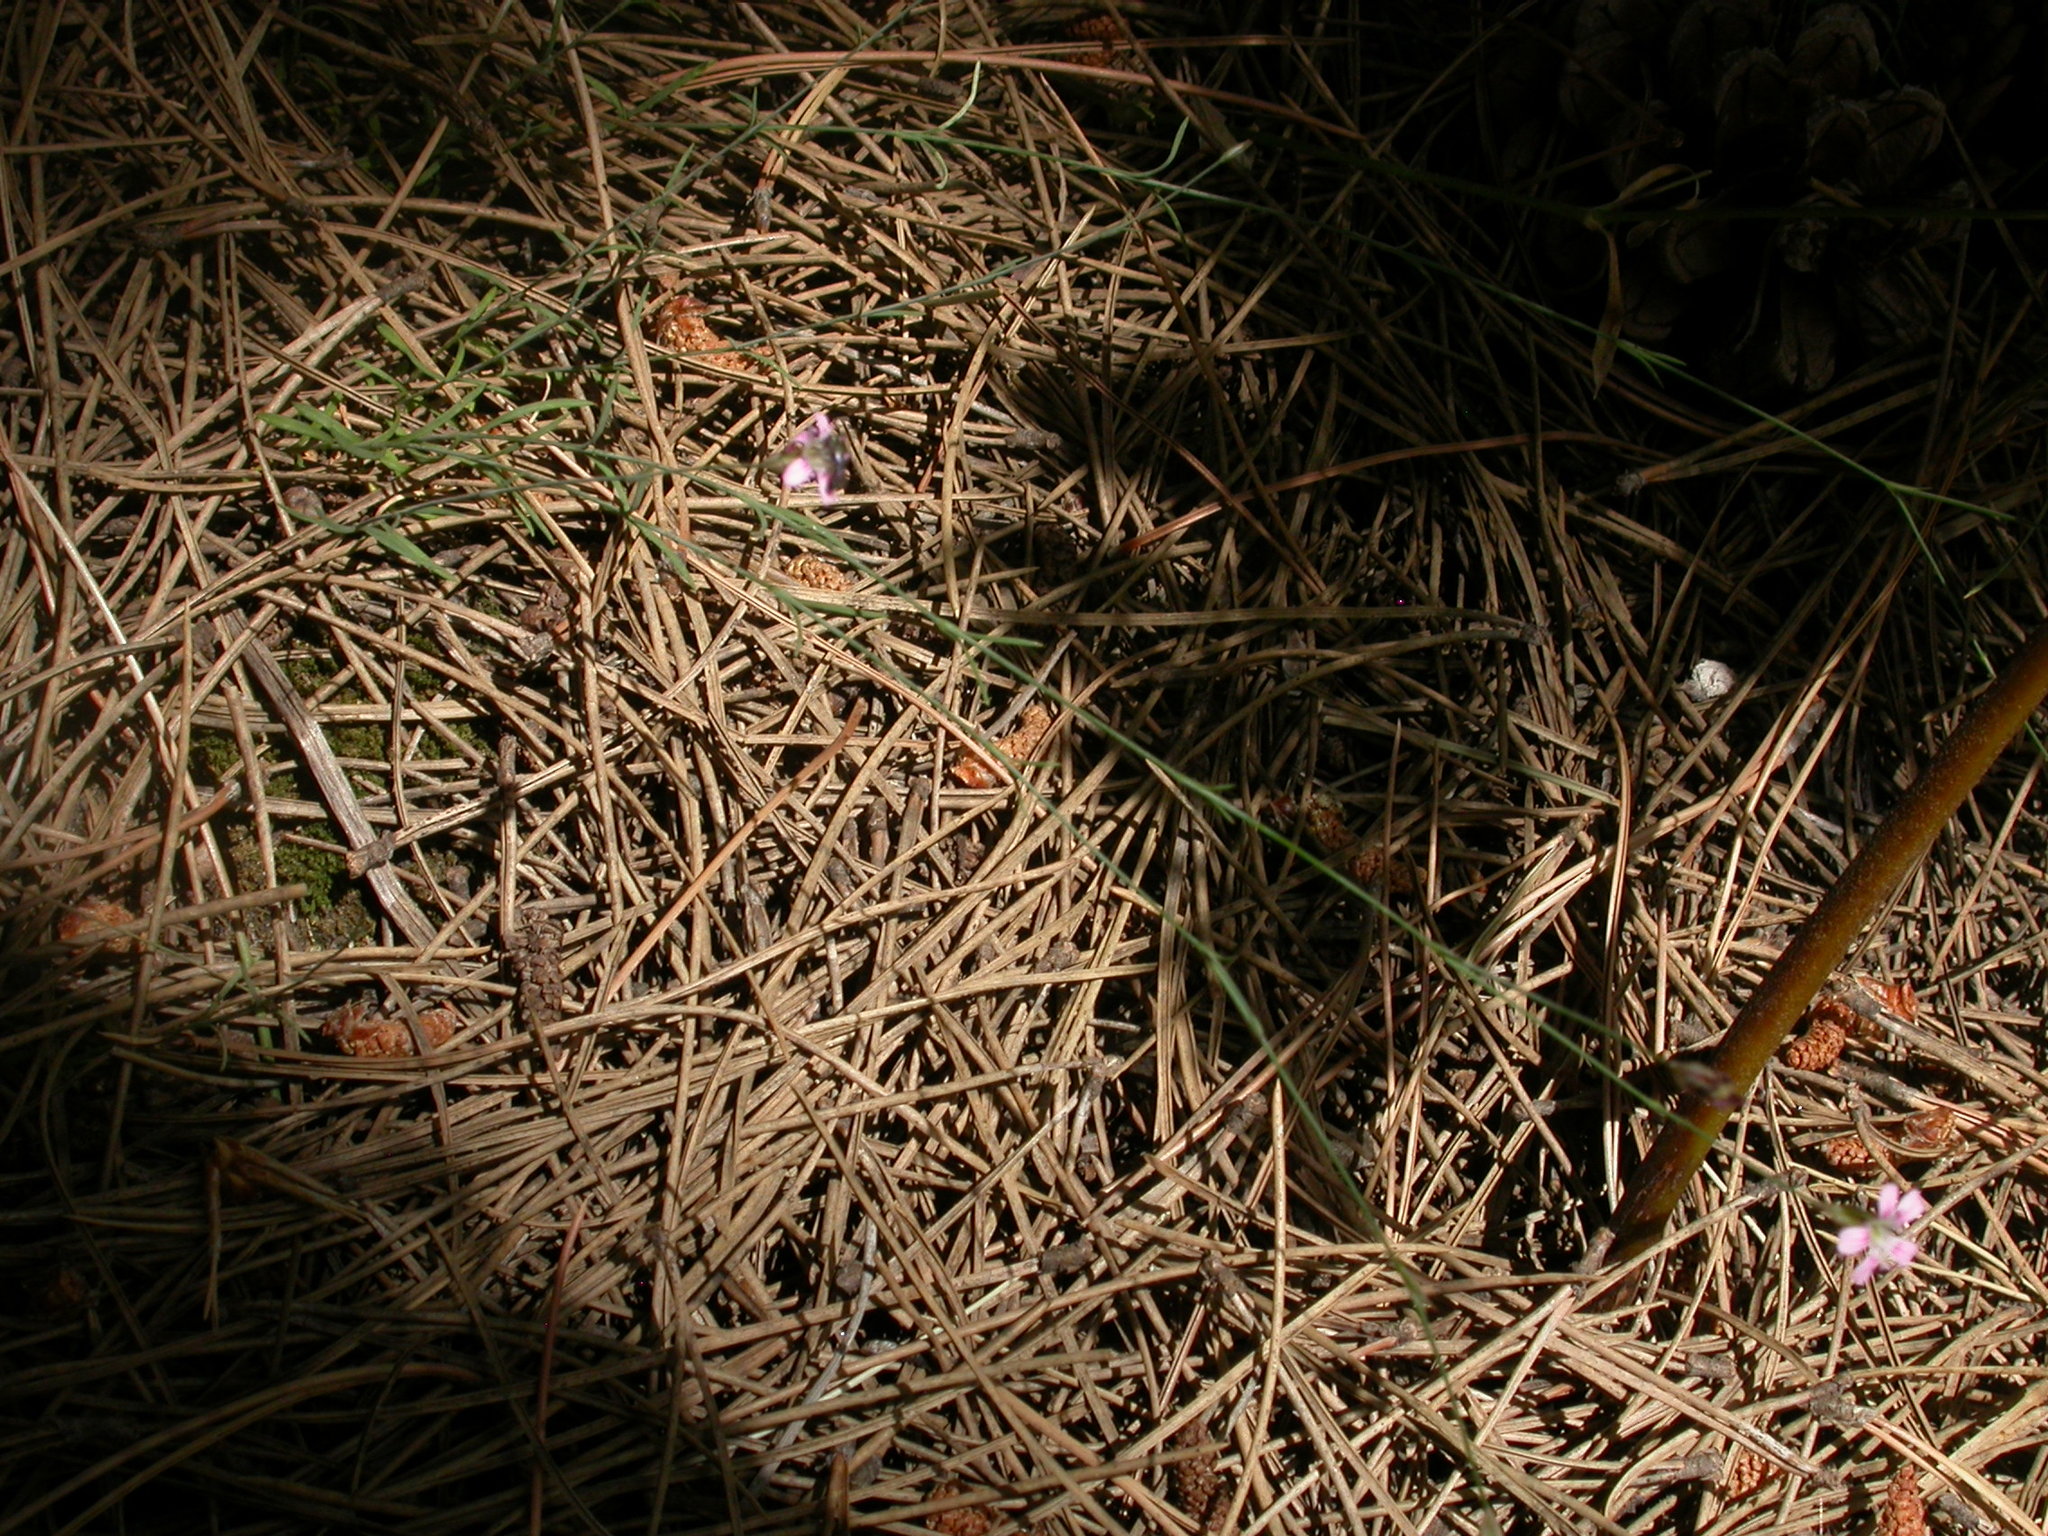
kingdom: Plantae
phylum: Tracheophyta
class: Magnoliopsida
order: Caryophyllales
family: Caryophyllaceae
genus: Petrorhagia
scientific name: Petrorhagia saxifraga
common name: Tunicflower
